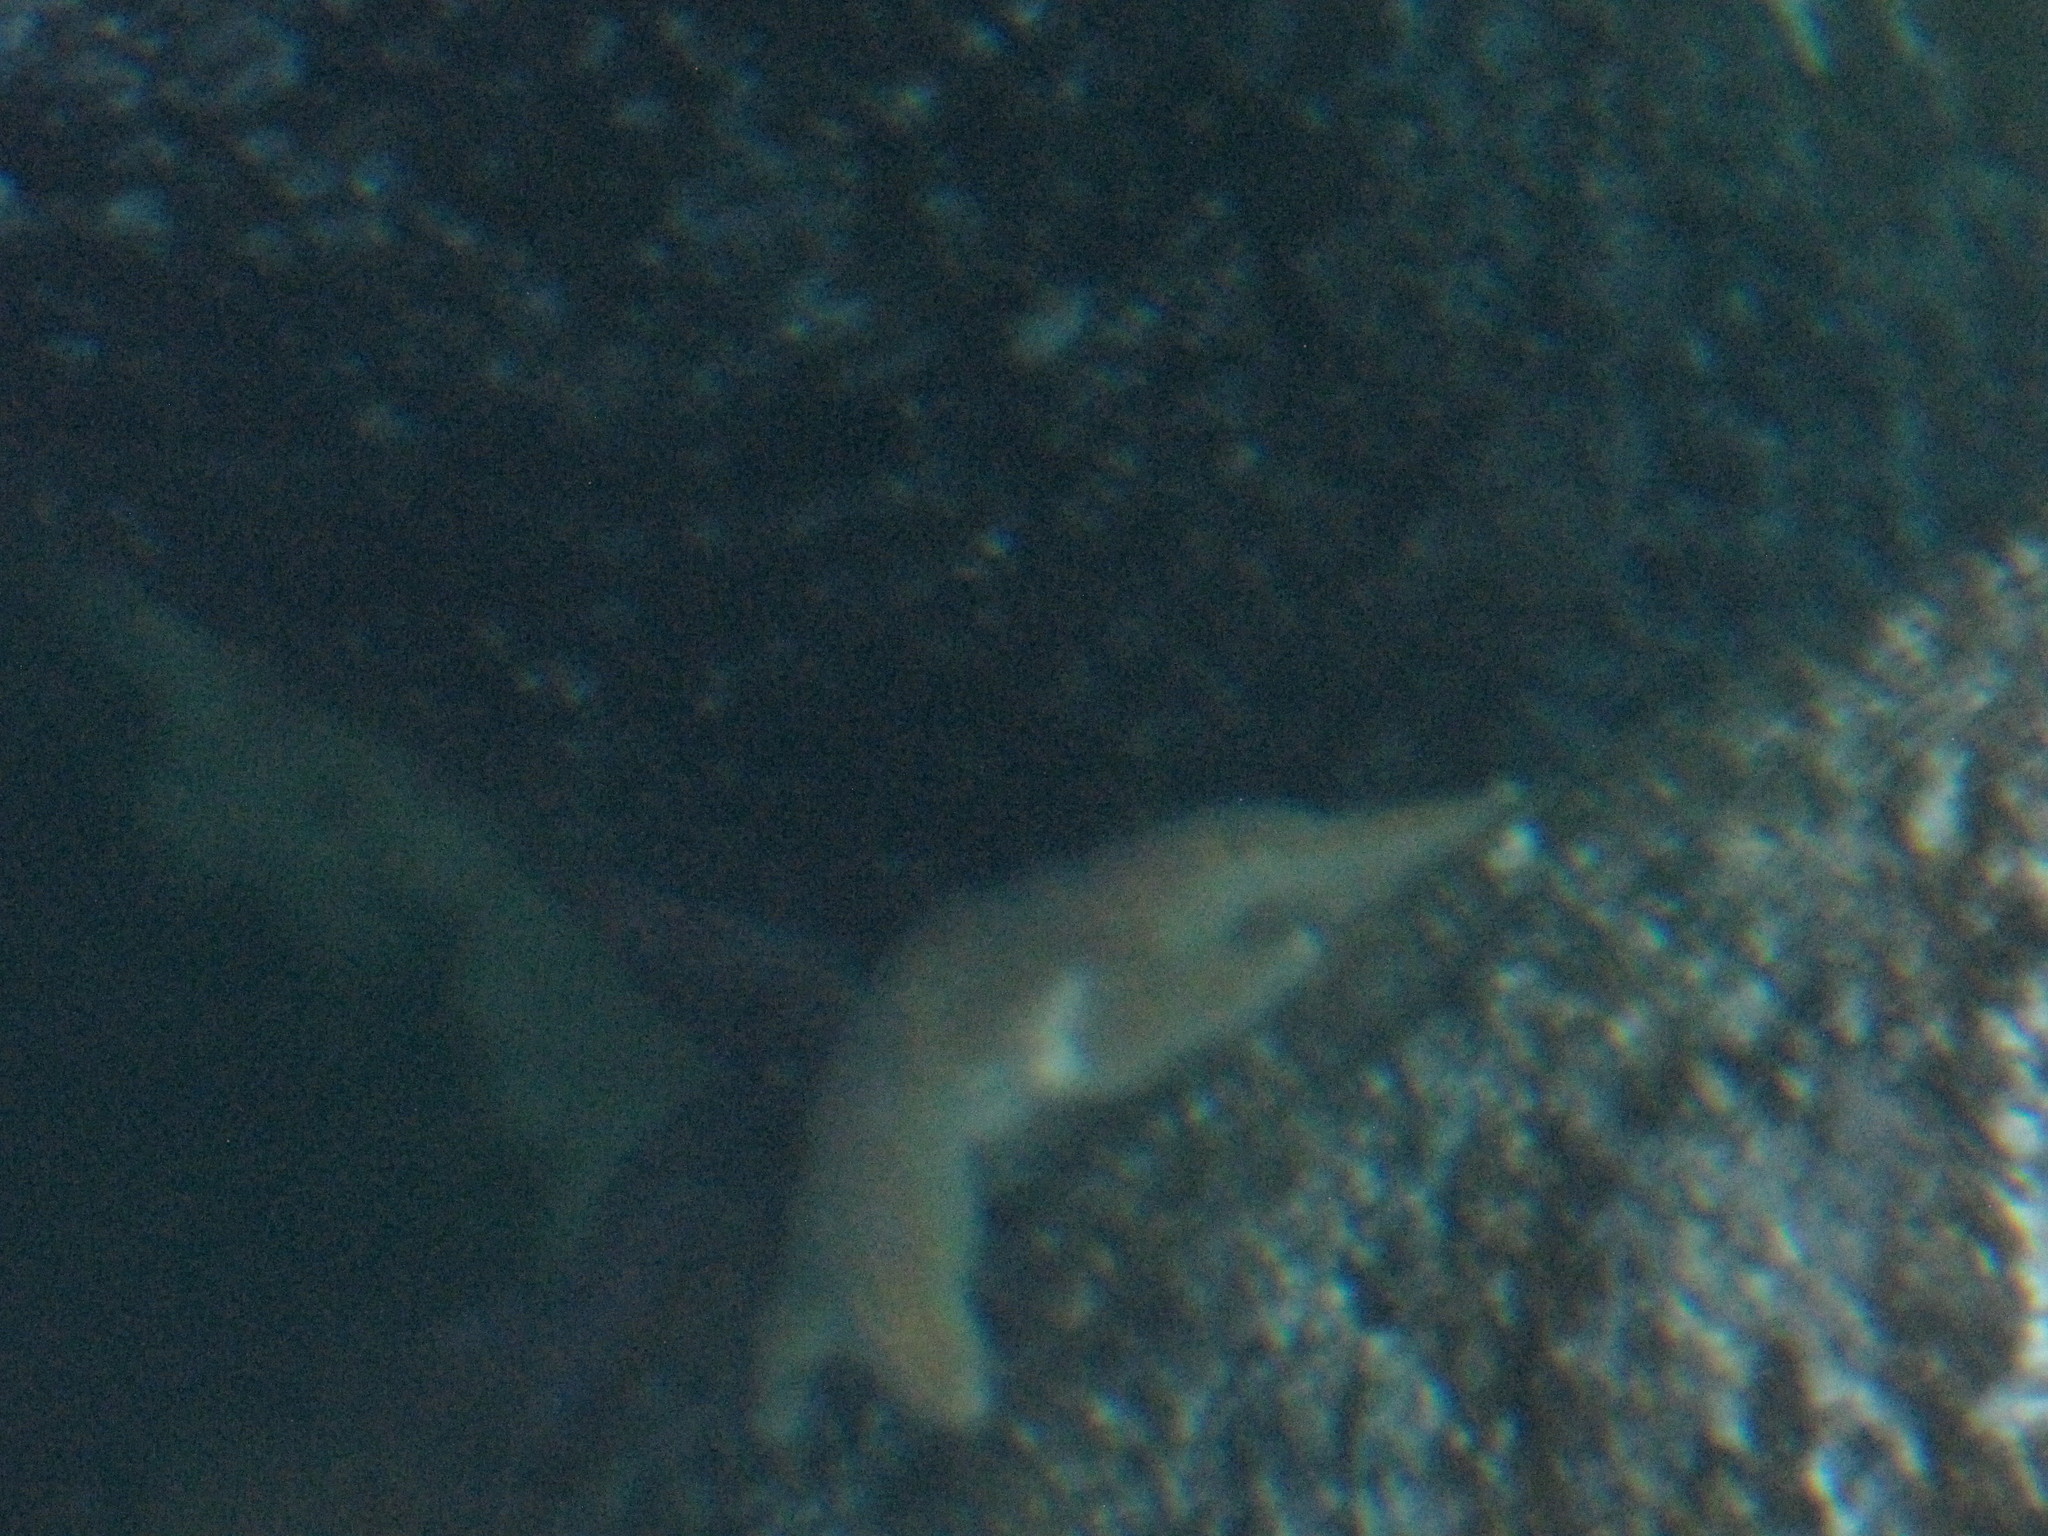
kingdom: Animalia
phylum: Echinodermata
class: Asteroidea
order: Valvatida
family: Asteropseidae
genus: Dermasterias
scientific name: Dermasterias imbricata
